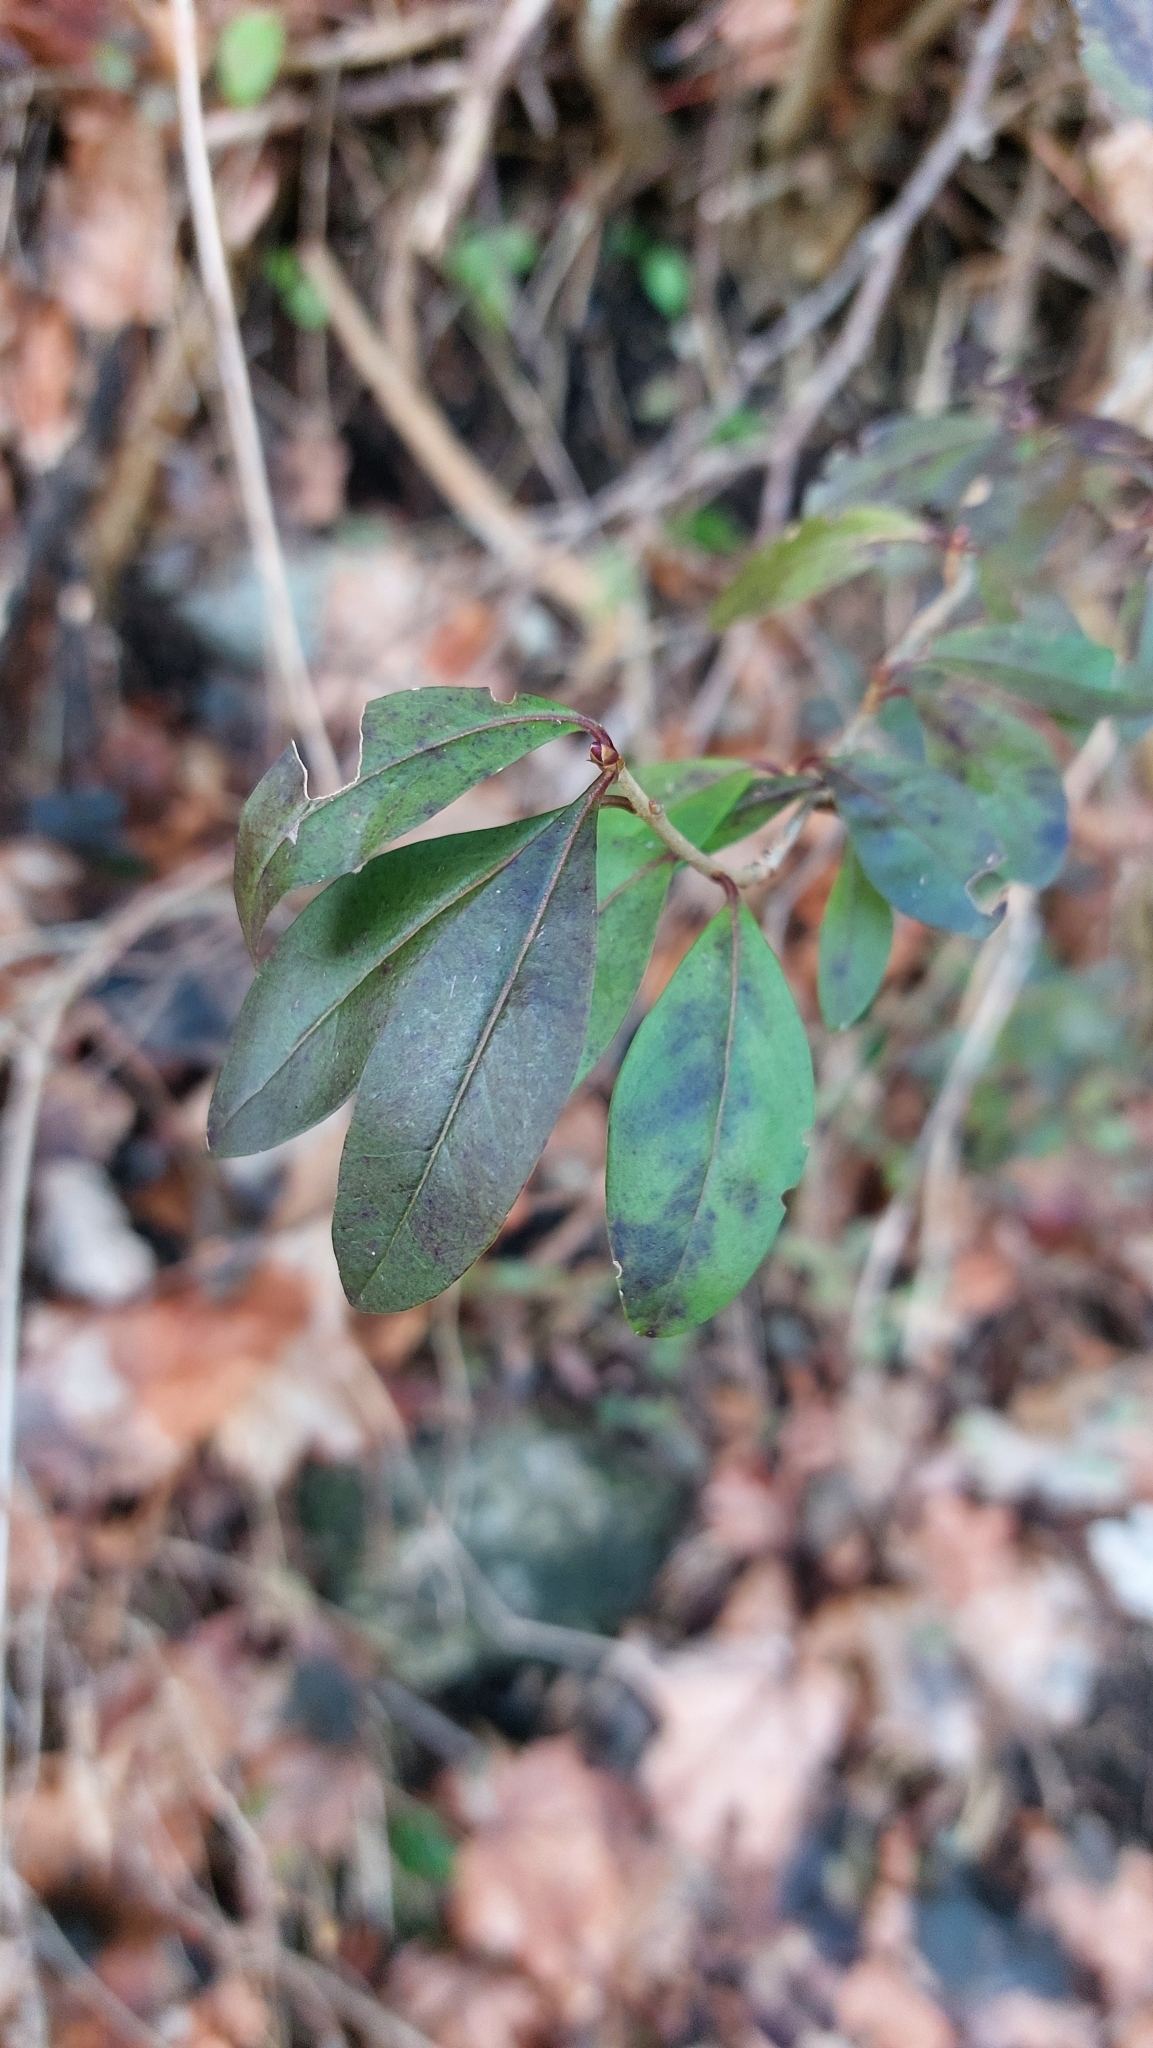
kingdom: Plantae
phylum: Tracheophyta
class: Magnoliopsida
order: Lamiales
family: Oleaceae
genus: Ligustrum
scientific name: Ligustrum vulgare
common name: Wild privet
